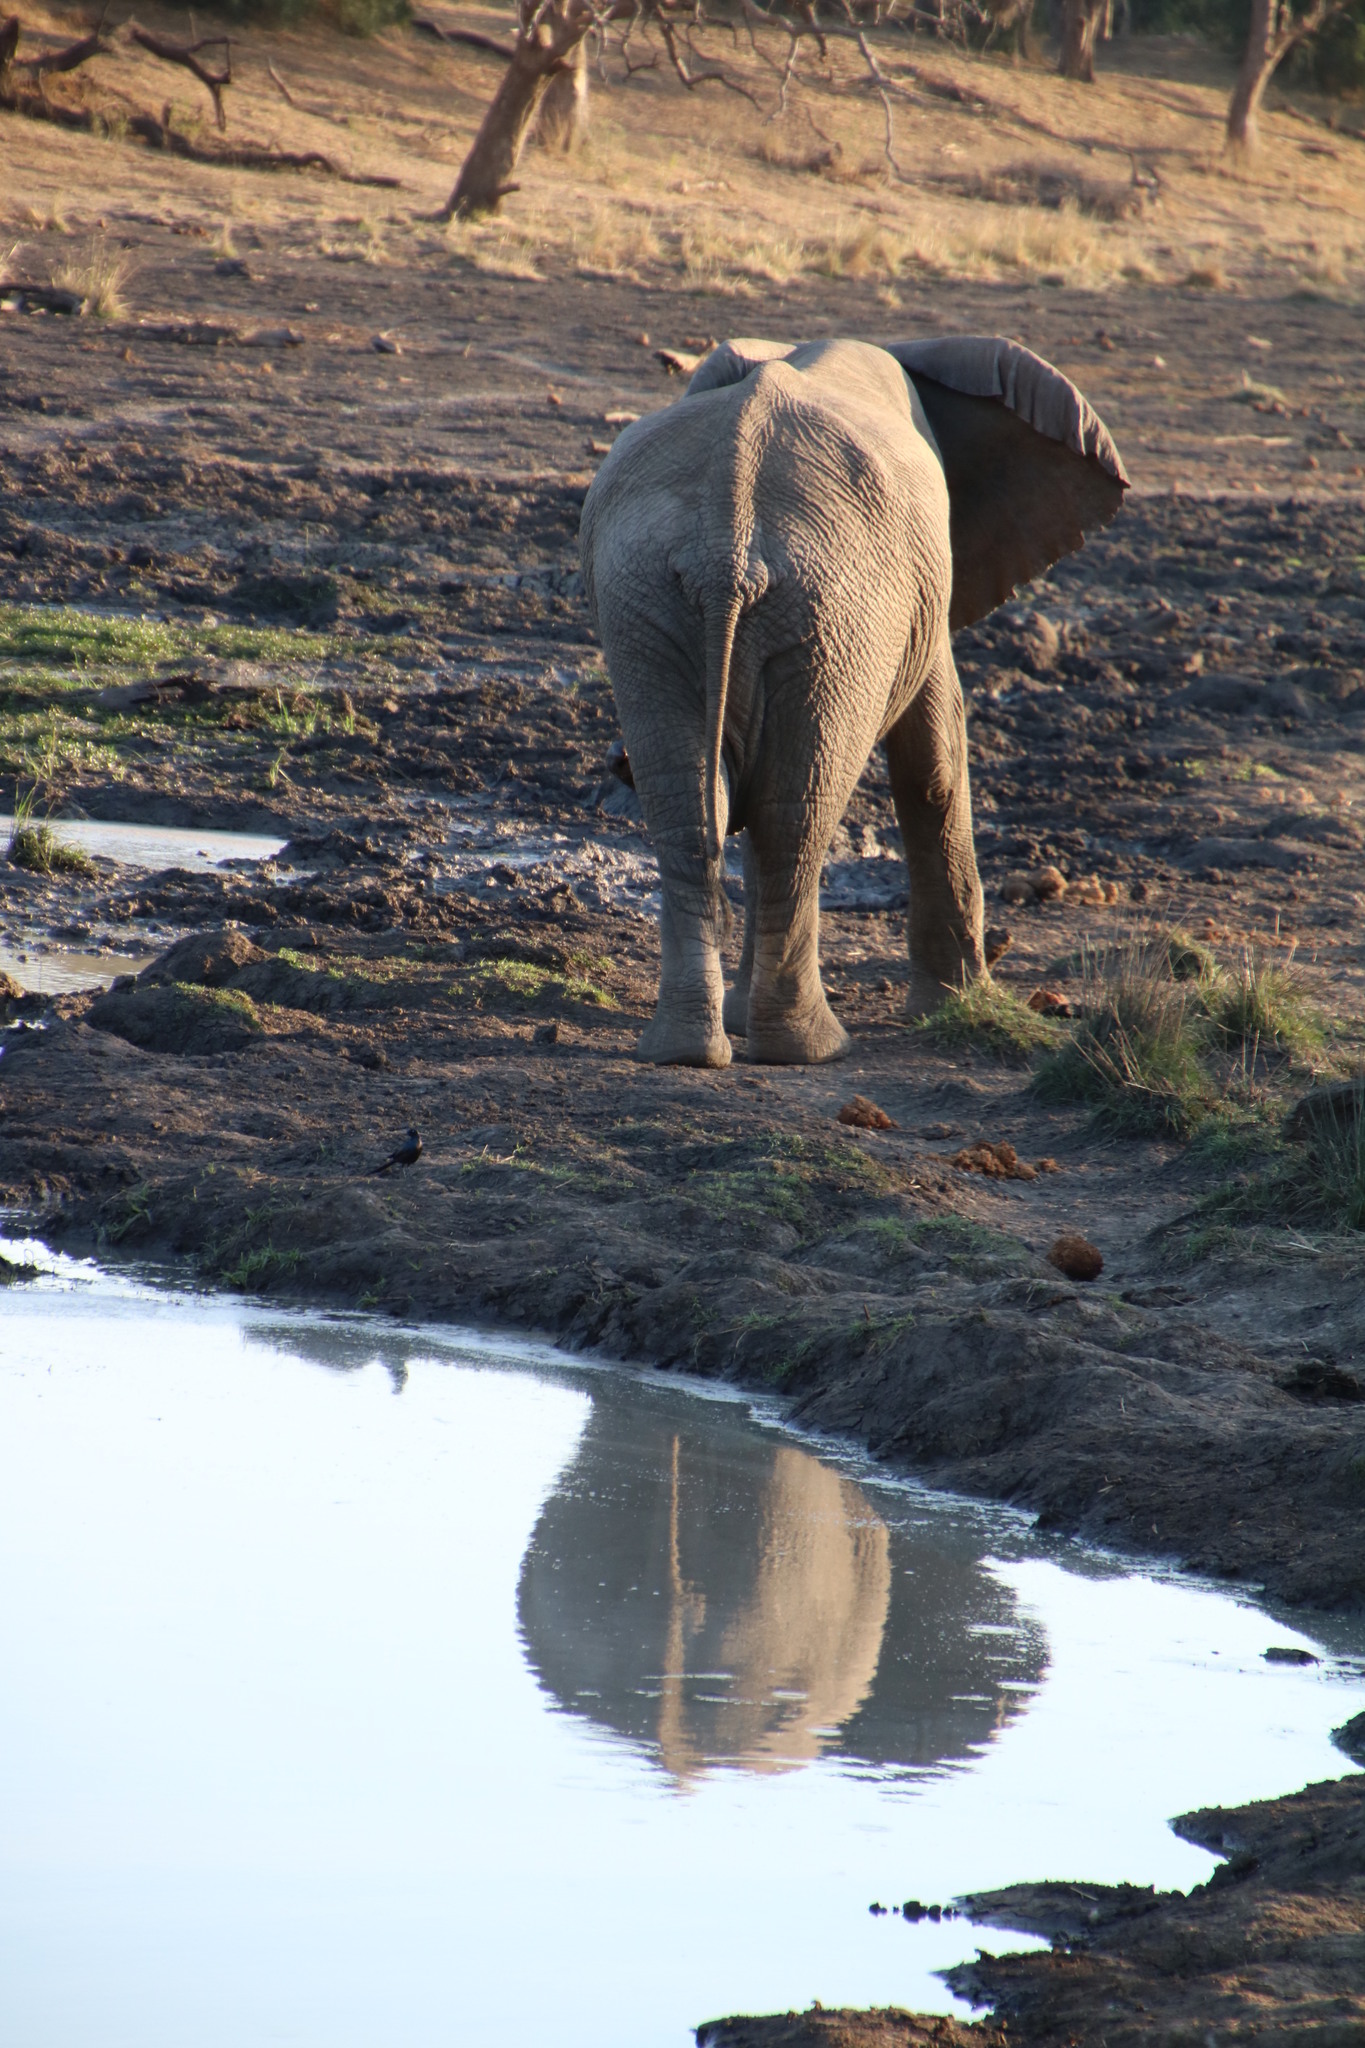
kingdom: Animalia
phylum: Chordata
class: Mammalia
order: Proboscidea
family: Elephantidae
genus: Loxodonta
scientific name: Loxodonta africana
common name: African elephant
